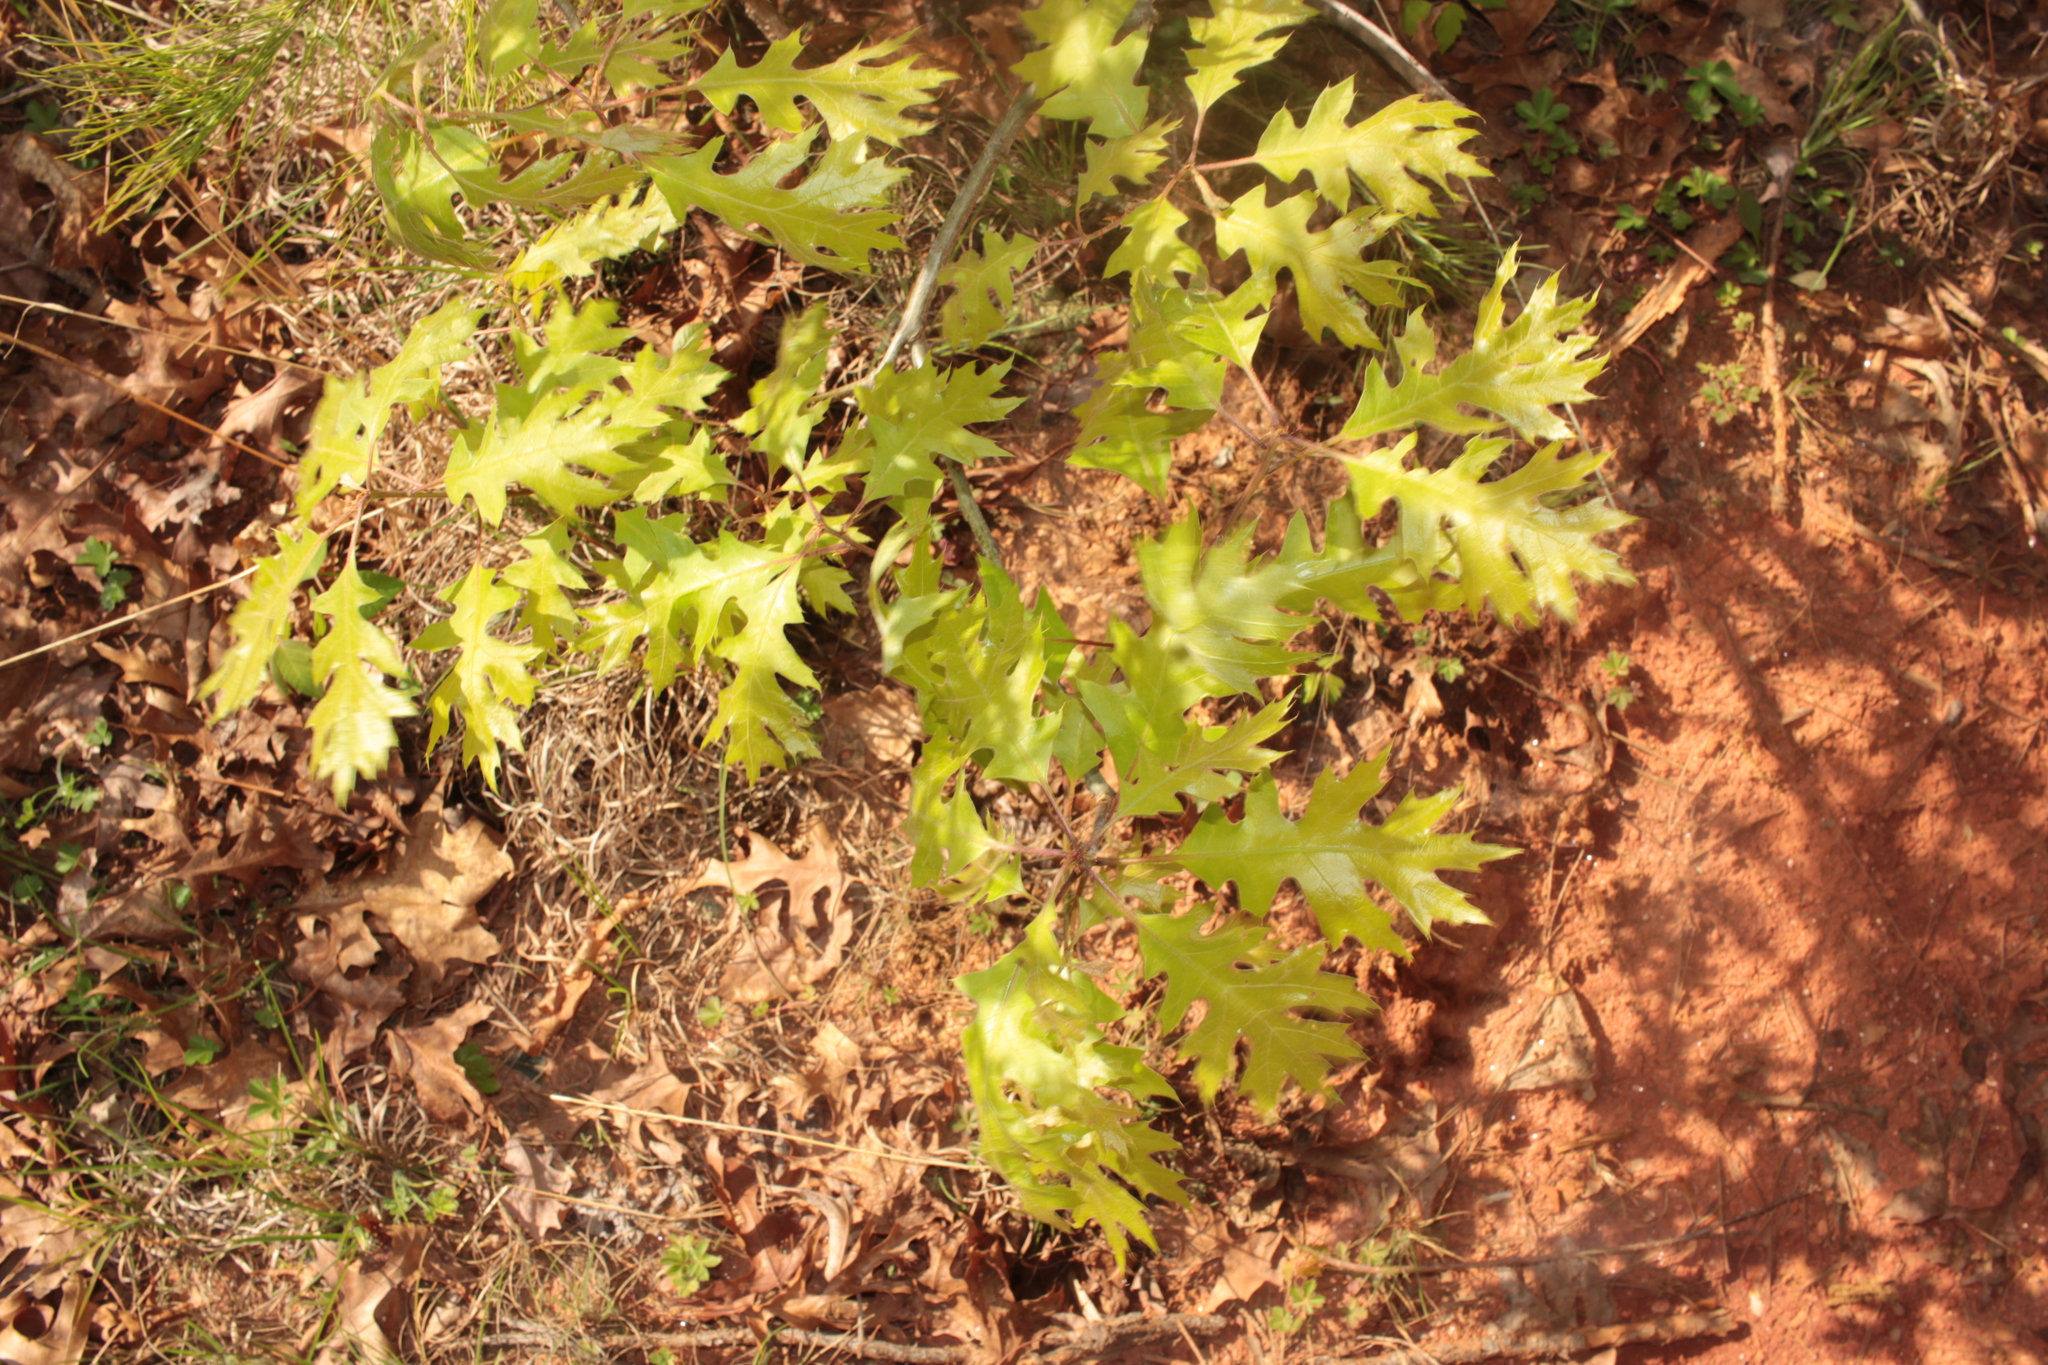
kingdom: Plantae
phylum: Tracheophyta
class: Magnoliopsida
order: Fagales
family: Fagaceae
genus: Quercus
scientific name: Quercus shumardii
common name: Shumard oak
